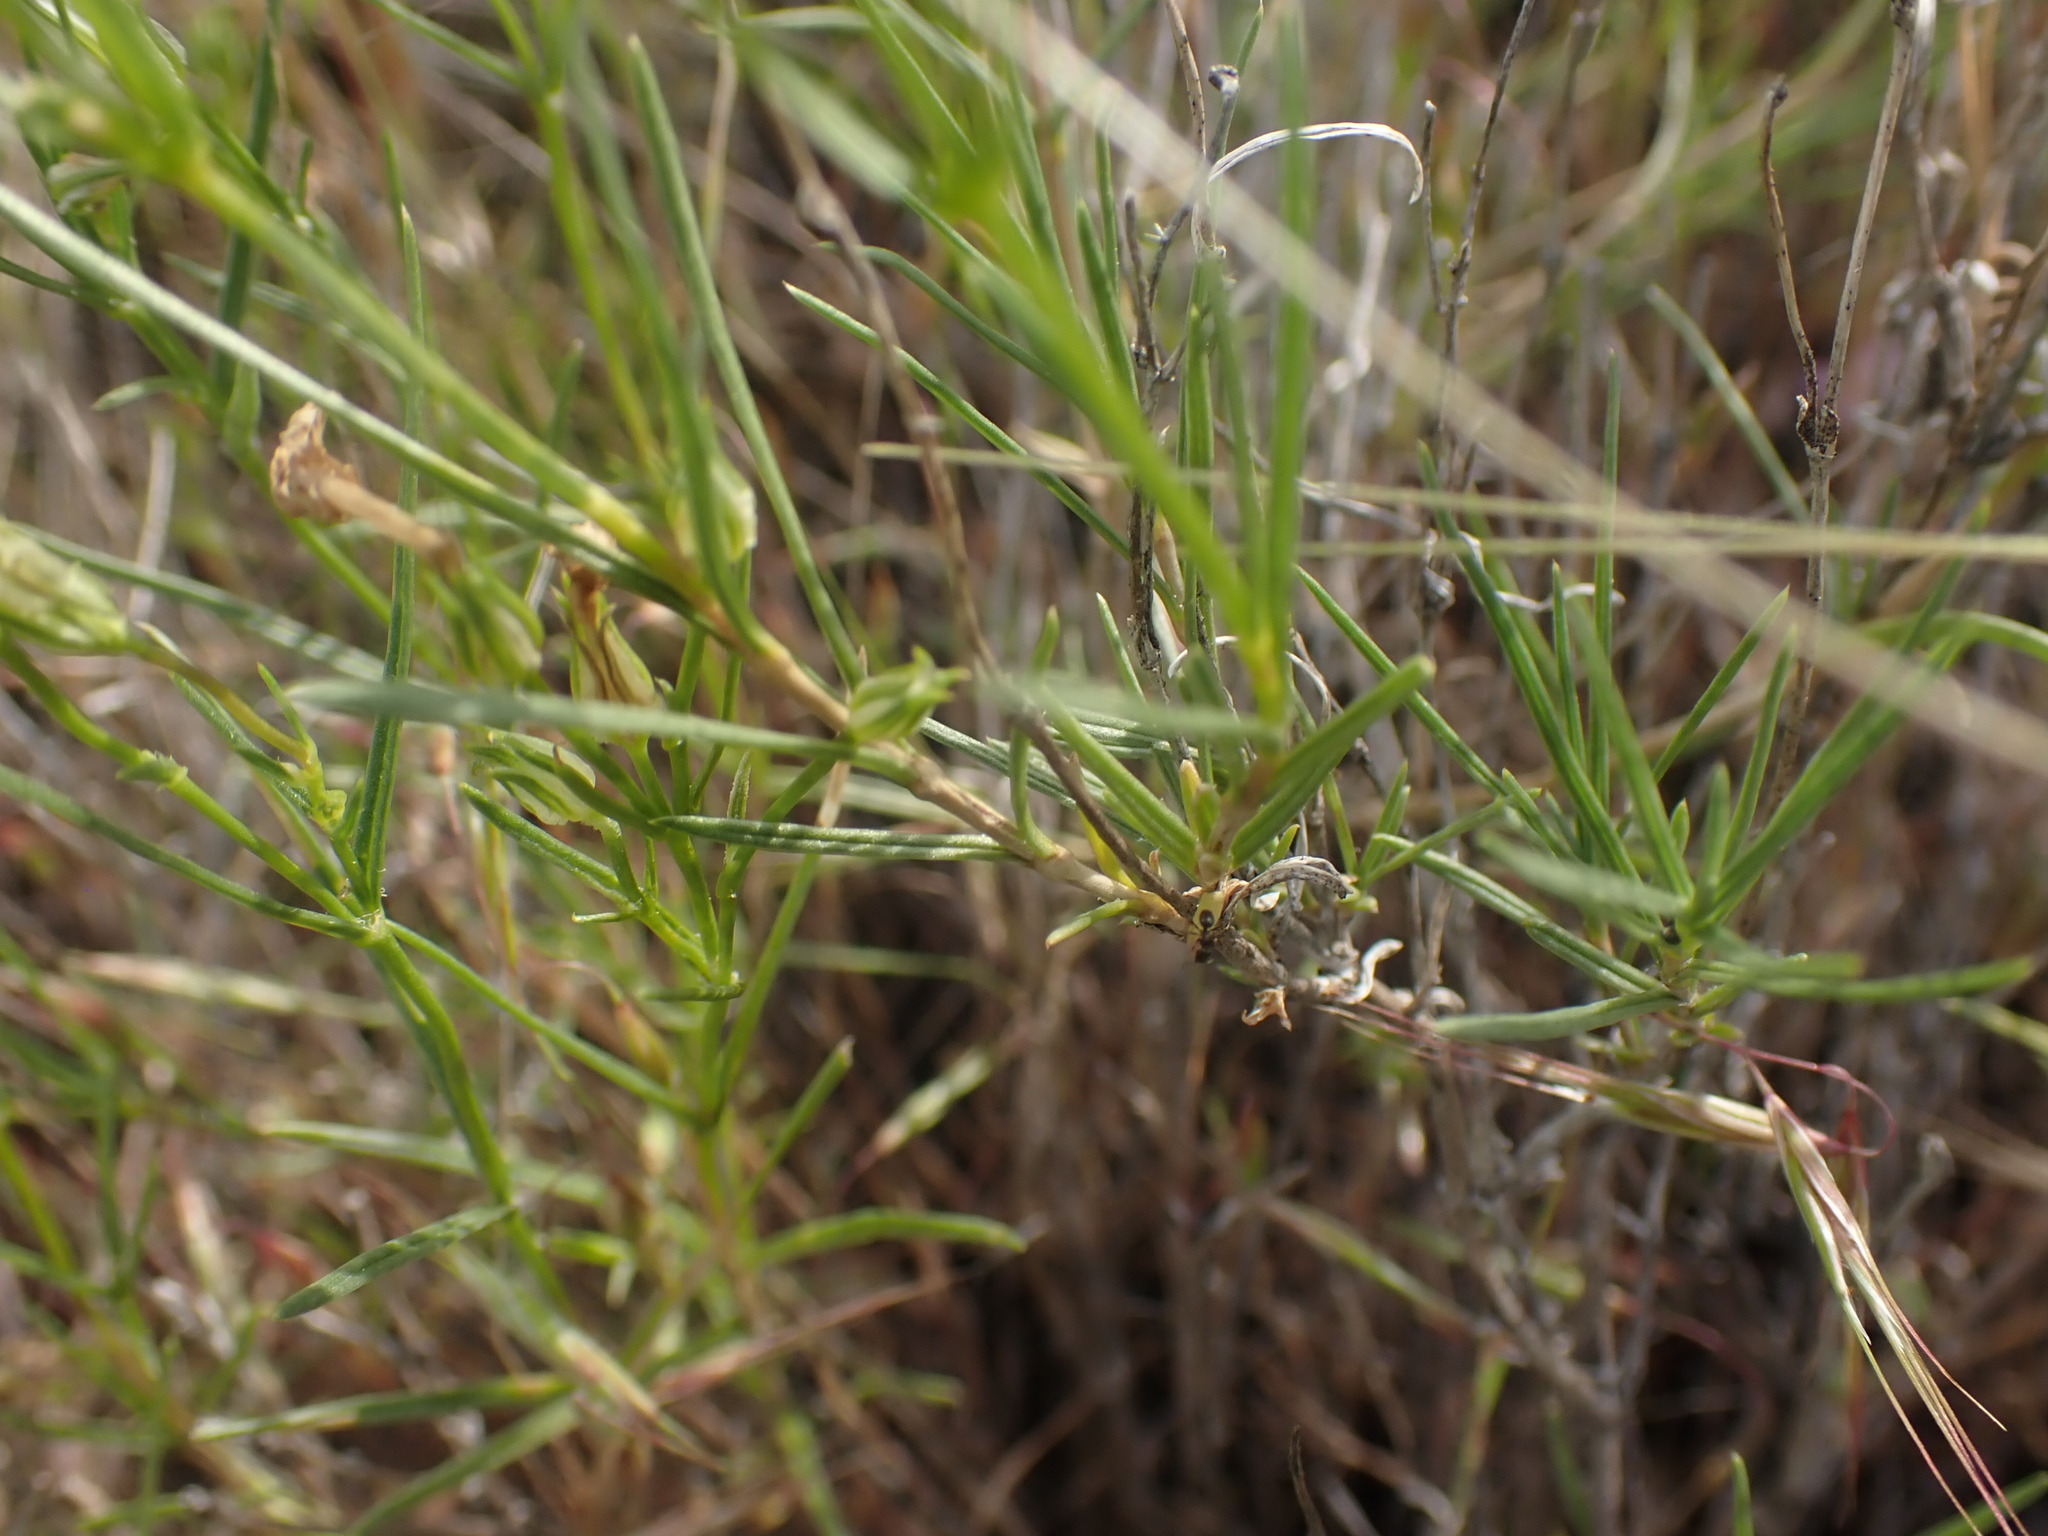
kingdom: Plantae
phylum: Tracheophyta
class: Magnoliopsida
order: Ericales
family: Polemoniaceae
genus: Phlox
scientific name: Phlox longifolia
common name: Longleaf phlox
